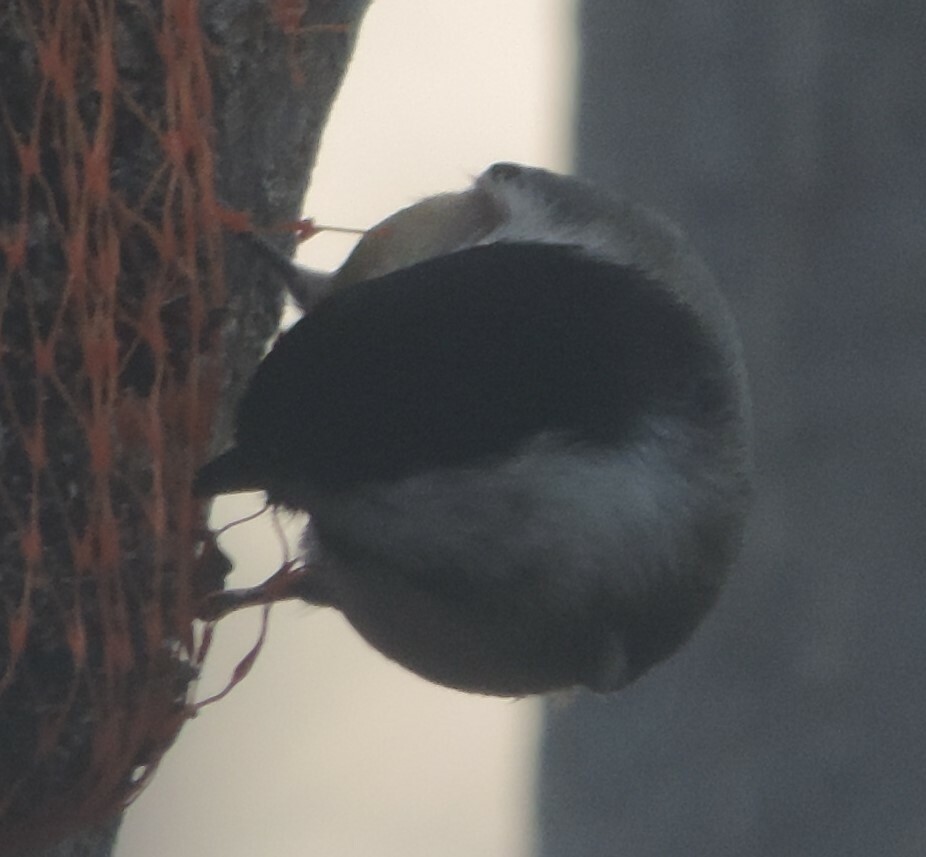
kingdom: Animalia
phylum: Chordata
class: Aves
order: Passeriformes
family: Paridae
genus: Poecile
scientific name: Poecile atricapillus
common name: Black-capped chickadee
